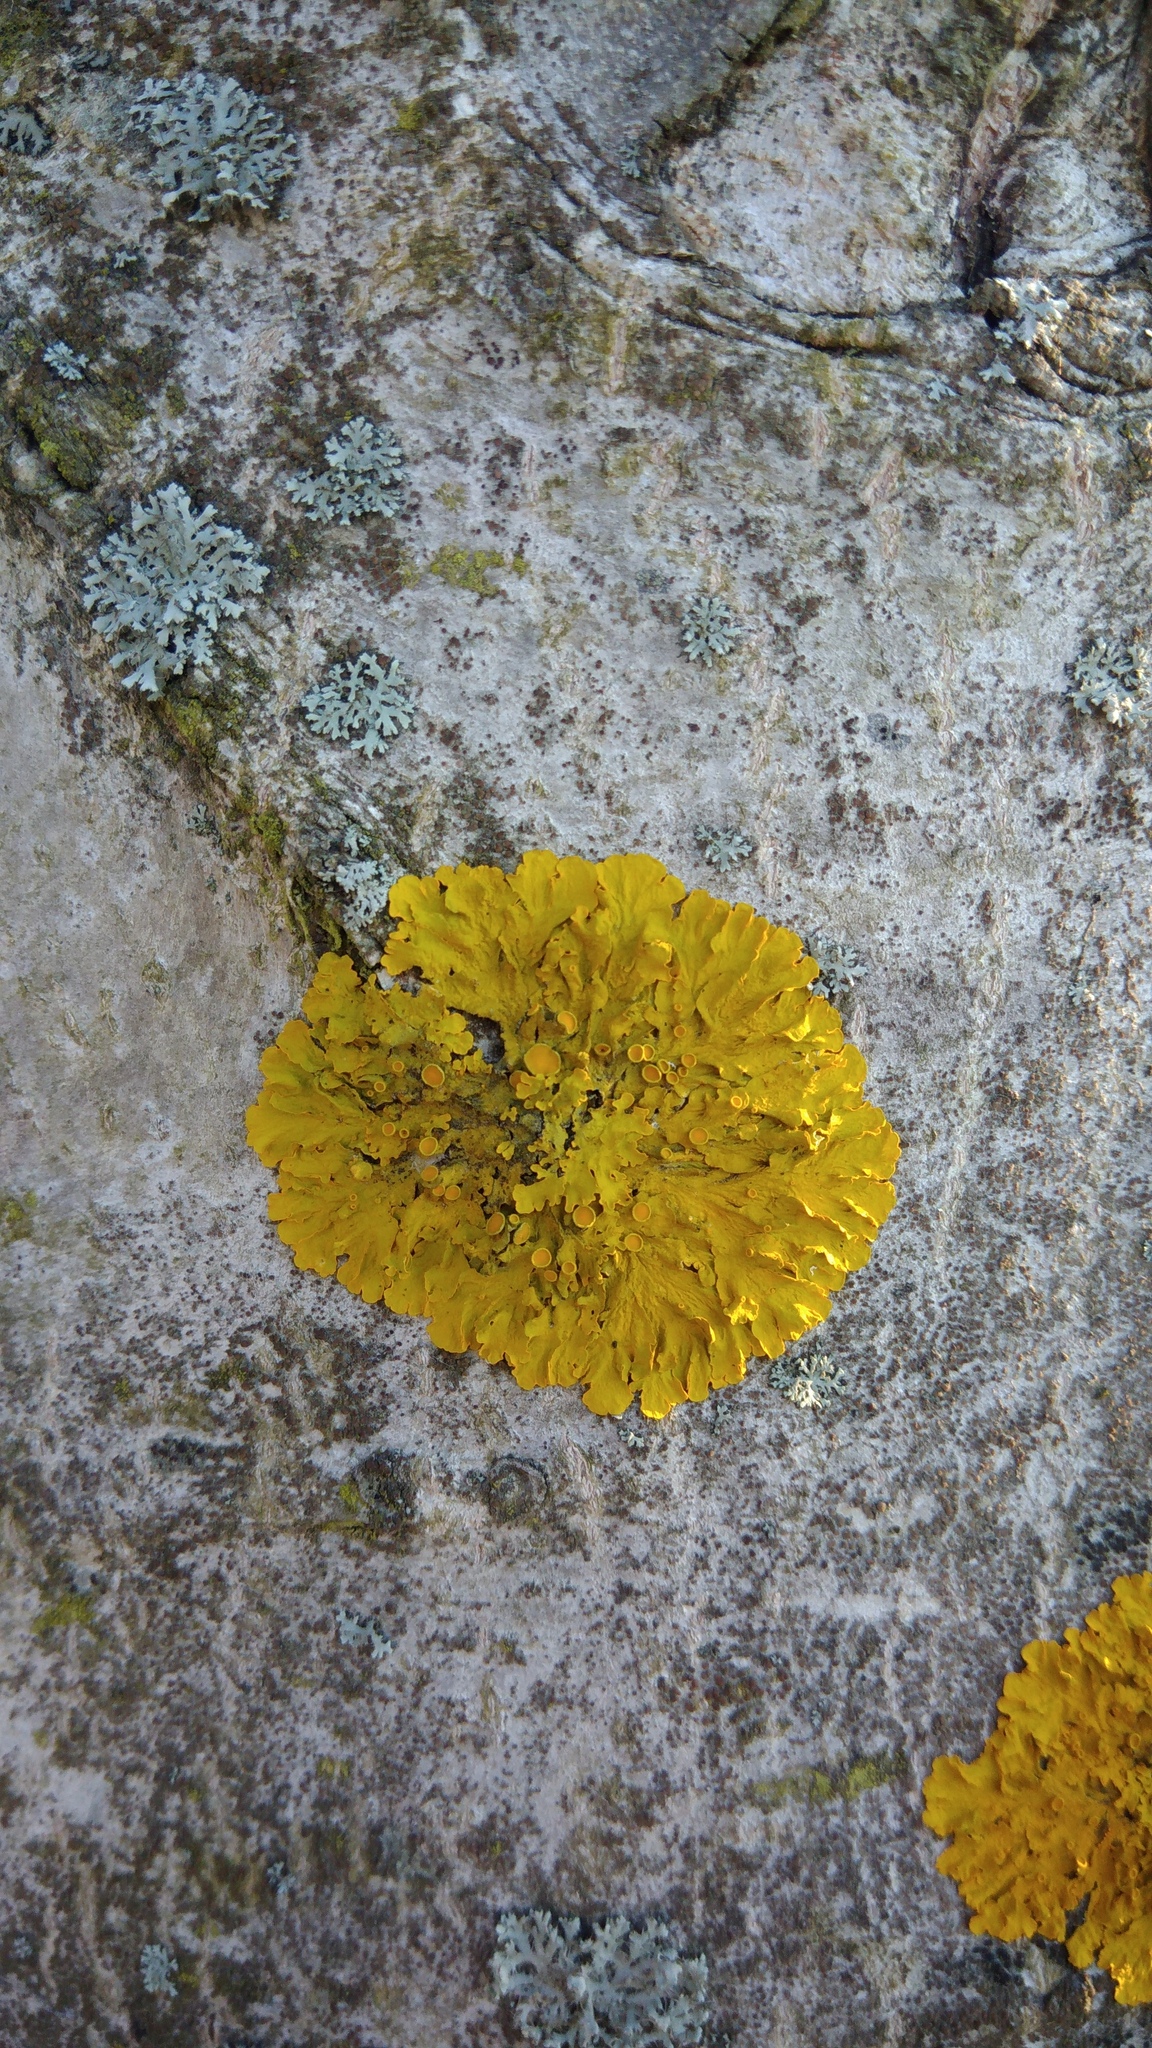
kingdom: Fungi
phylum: Ascomycota
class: Lecanoromycetes
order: Teloschistales
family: Teloschistaceae
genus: Xanthoria
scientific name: Xanthoria parietina
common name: Common orange lichen
